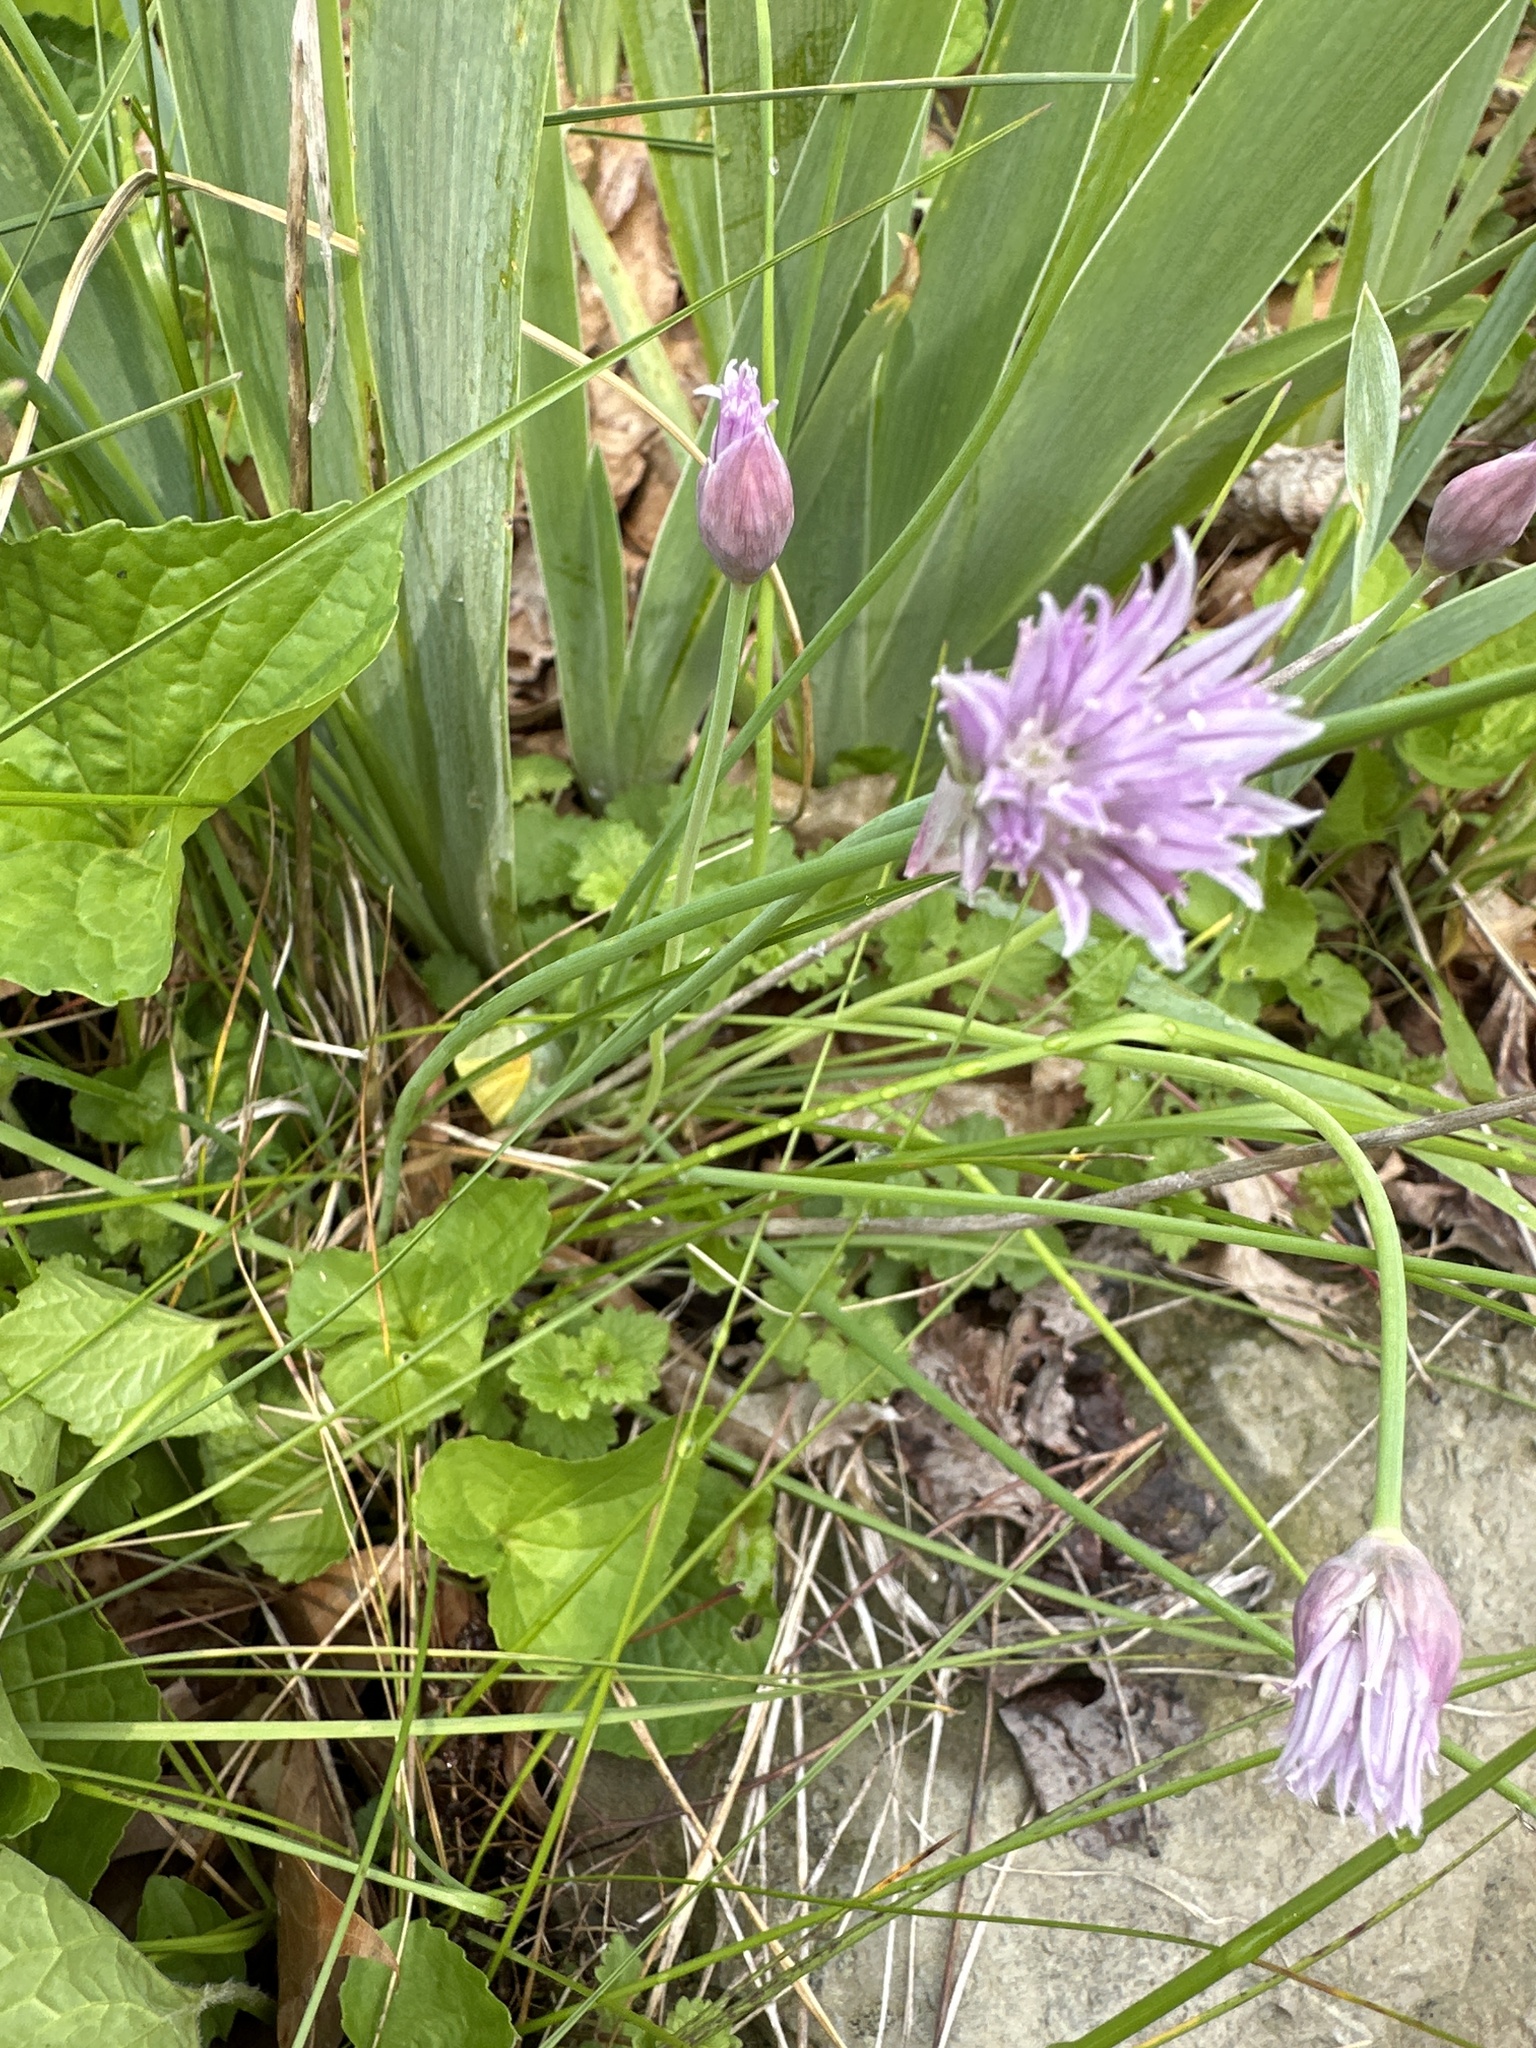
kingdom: Plantae
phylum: Tracheophyta
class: Liliopsida
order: Asparagales
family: Amaryllidaceae
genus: Allium
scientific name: Allium schoenoprasum
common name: Chives
